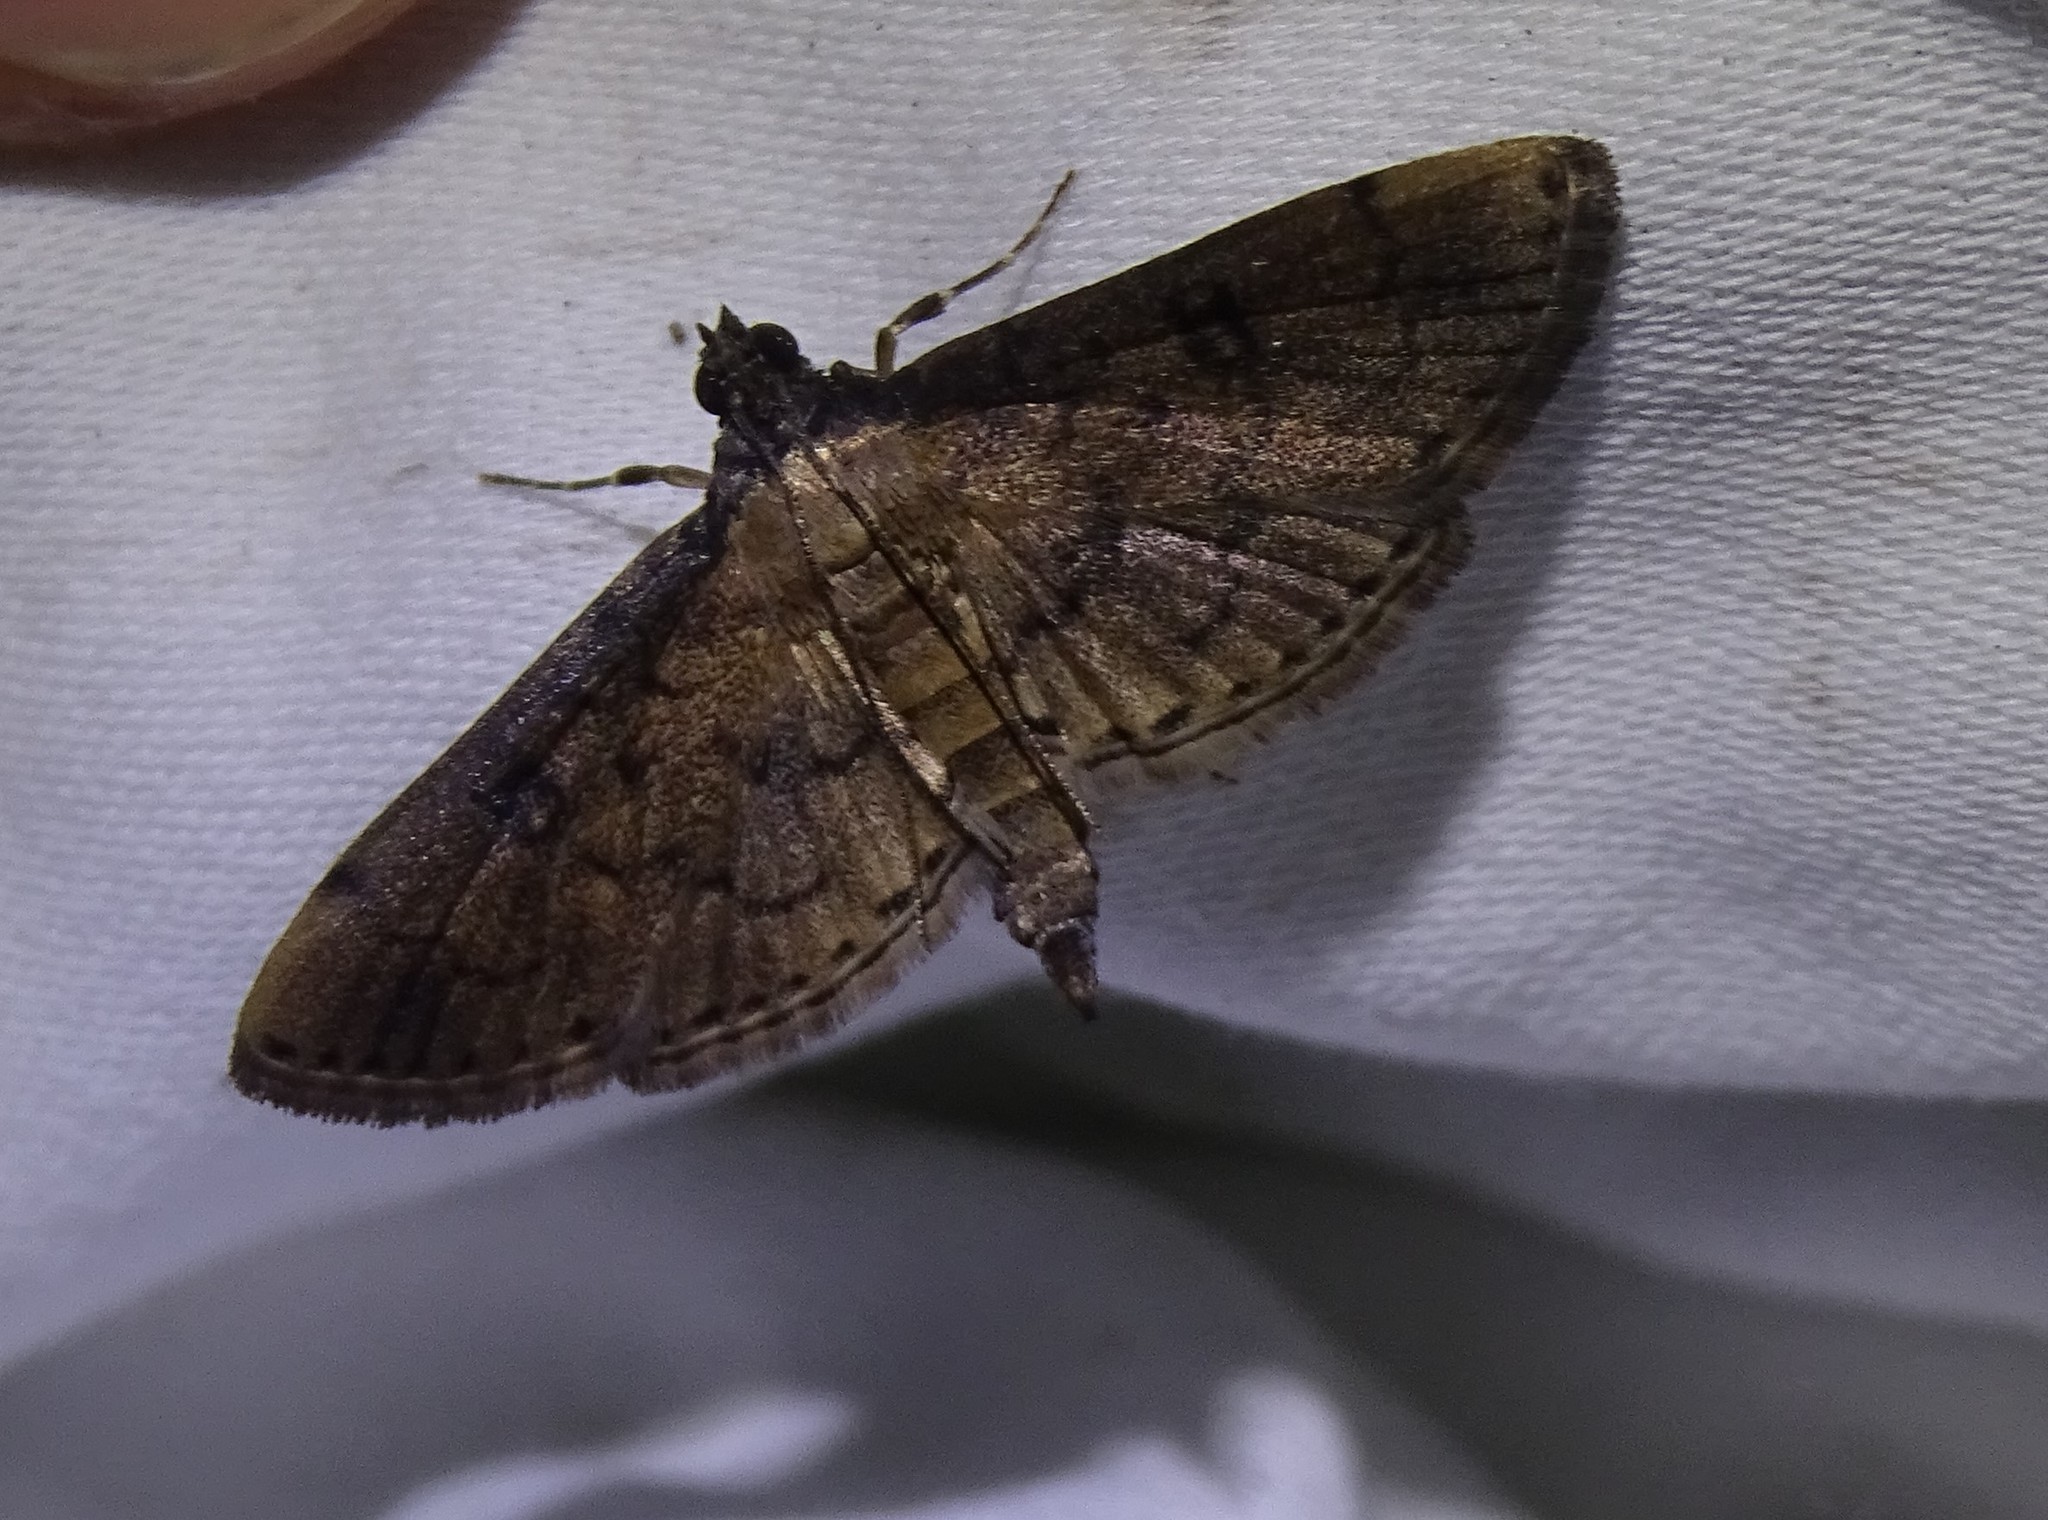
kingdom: Animalia
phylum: Arthropoda
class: Insecta
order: Lepidoptera
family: Crambidae
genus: Herpetogramma
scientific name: Herpetogramma phaeopteralis
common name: Dusky herpetogramma moth
